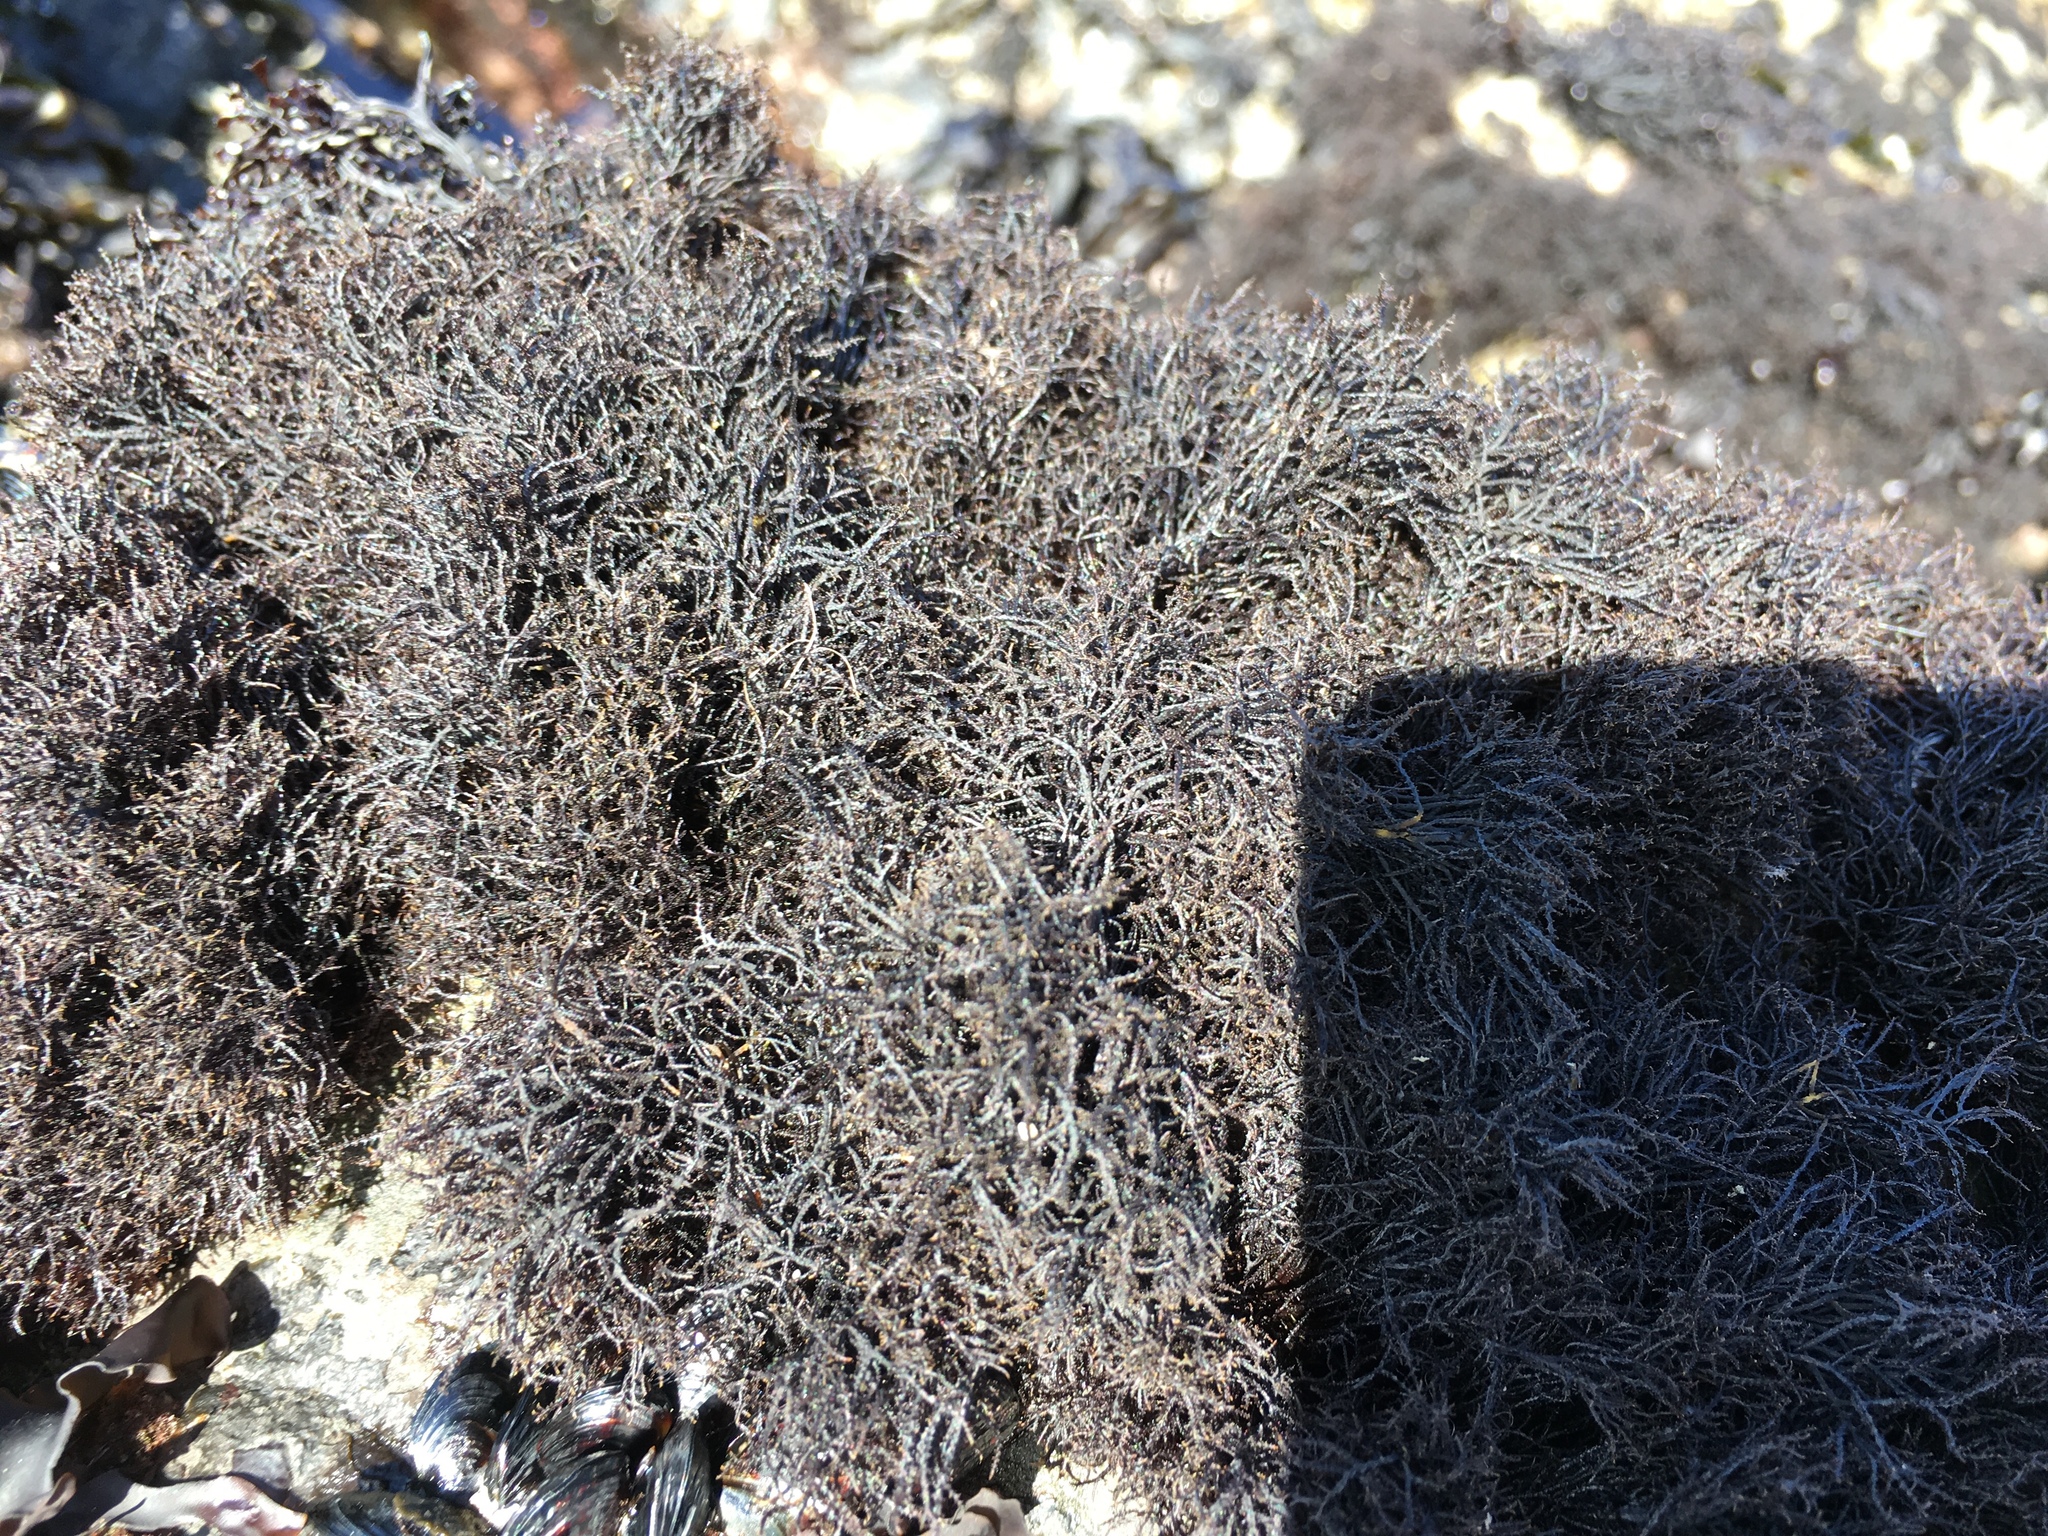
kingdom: Plantae
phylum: Rhodophyta
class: Florideophyceae
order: Gigartinales
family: Endocladiaceae
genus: Endocladia
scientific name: Endocladia muricata
